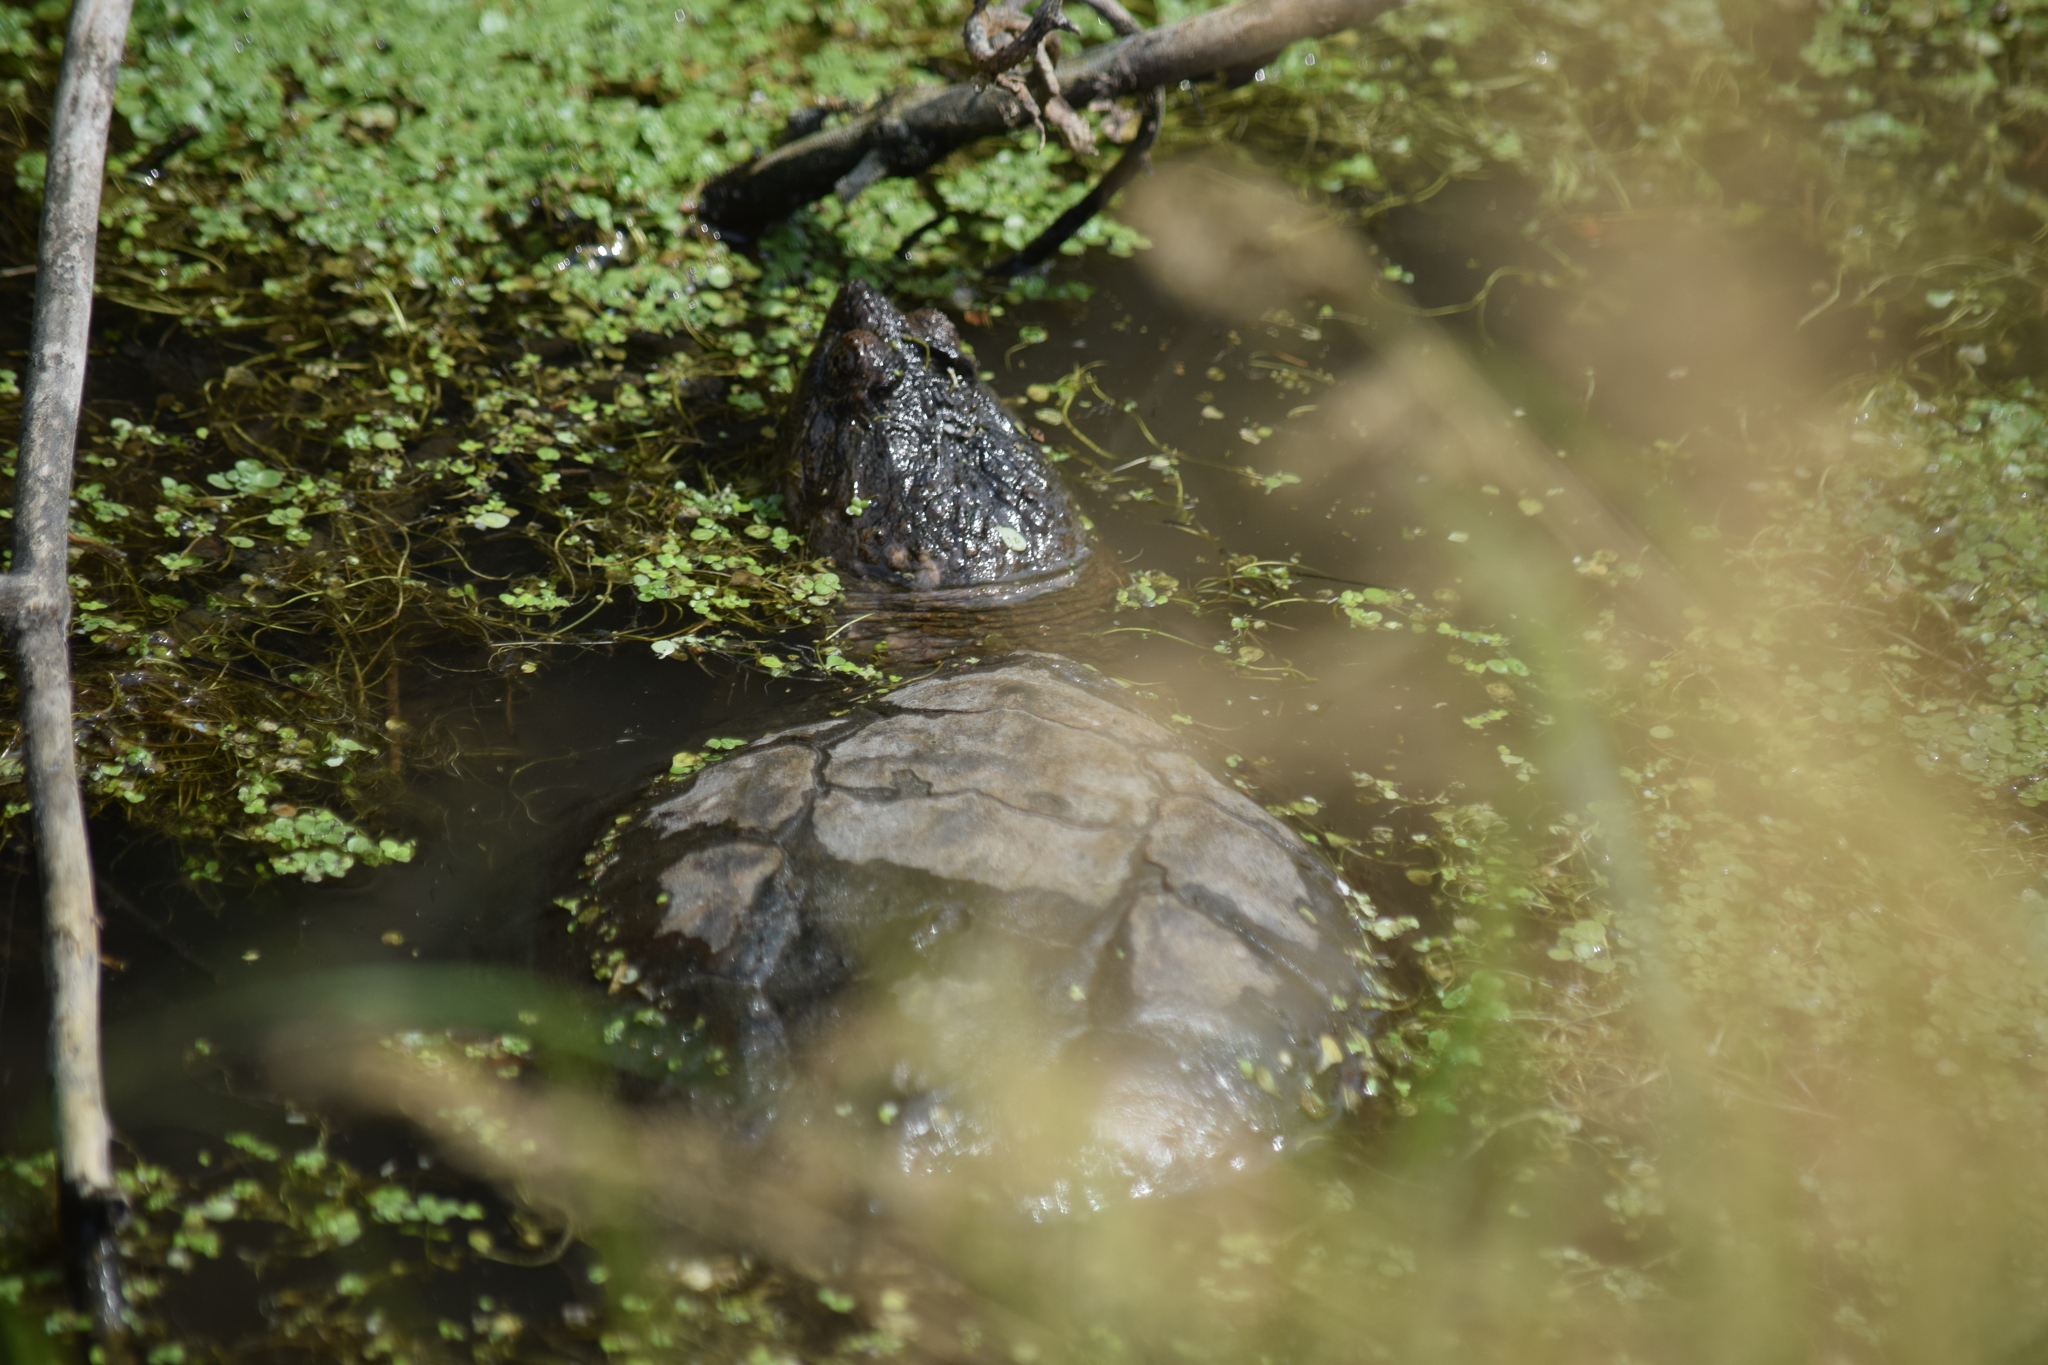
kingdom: Animalia
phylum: Chordata
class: Testudines
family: Chelydridae
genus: Chelydra
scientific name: Chelydra serpentina
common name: Common snapping turtle
